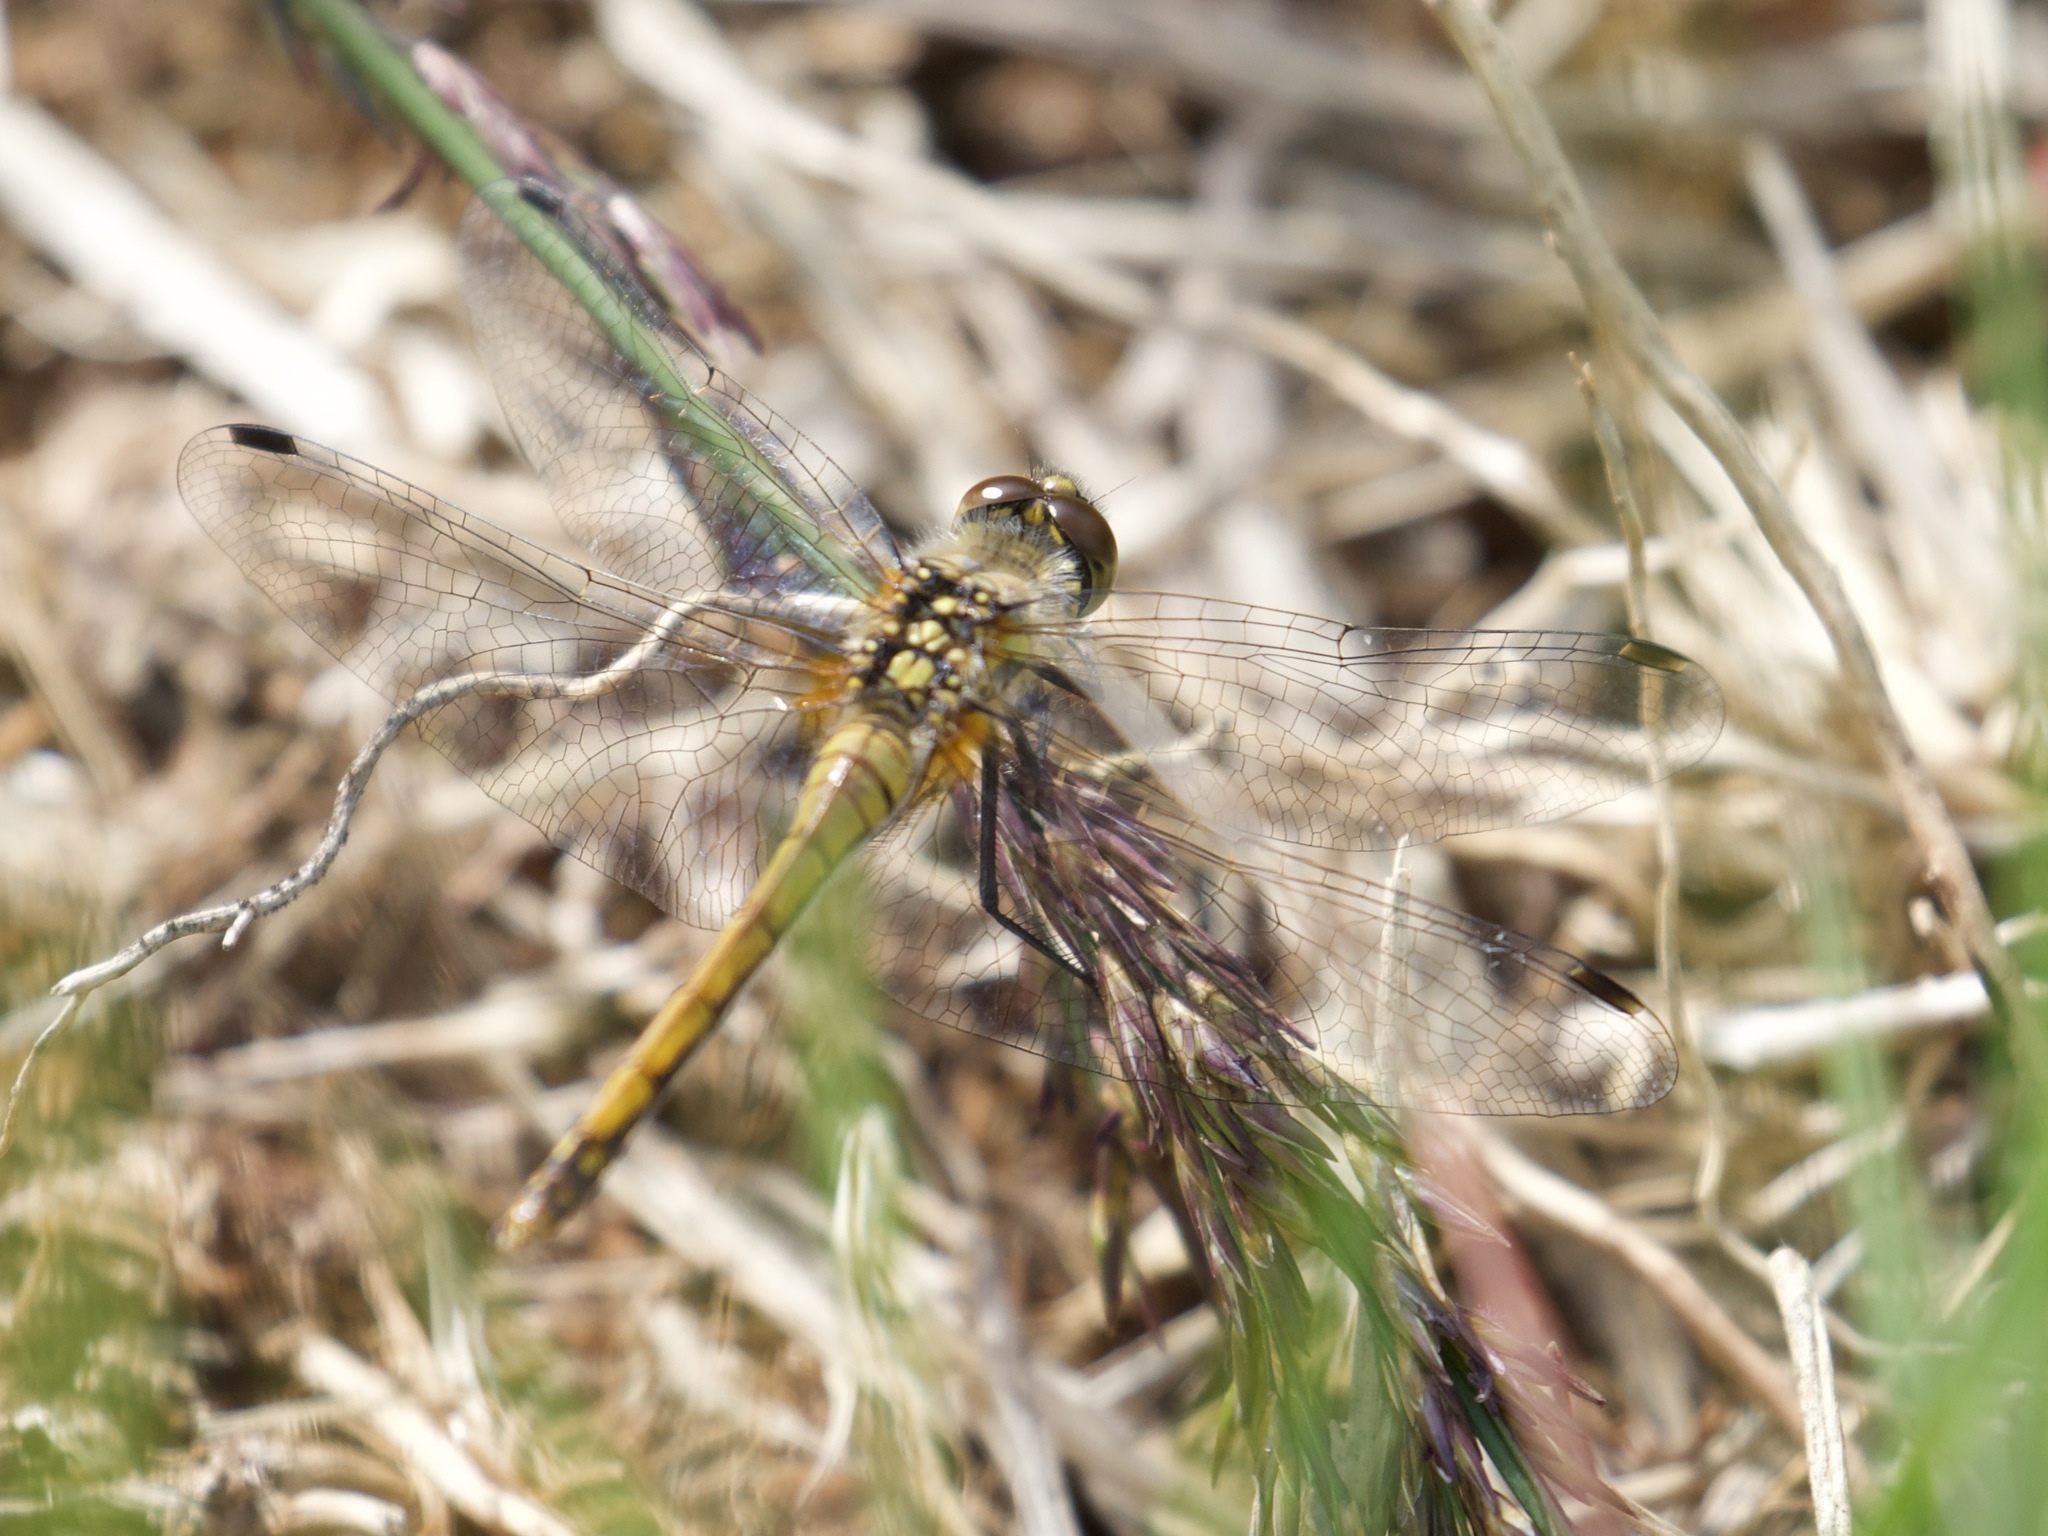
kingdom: Animalia
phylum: Arthropoda
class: Insecta
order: Odonata
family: Libellulidae
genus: Sympetrum
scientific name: Sympetrum danae
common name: Black darter
